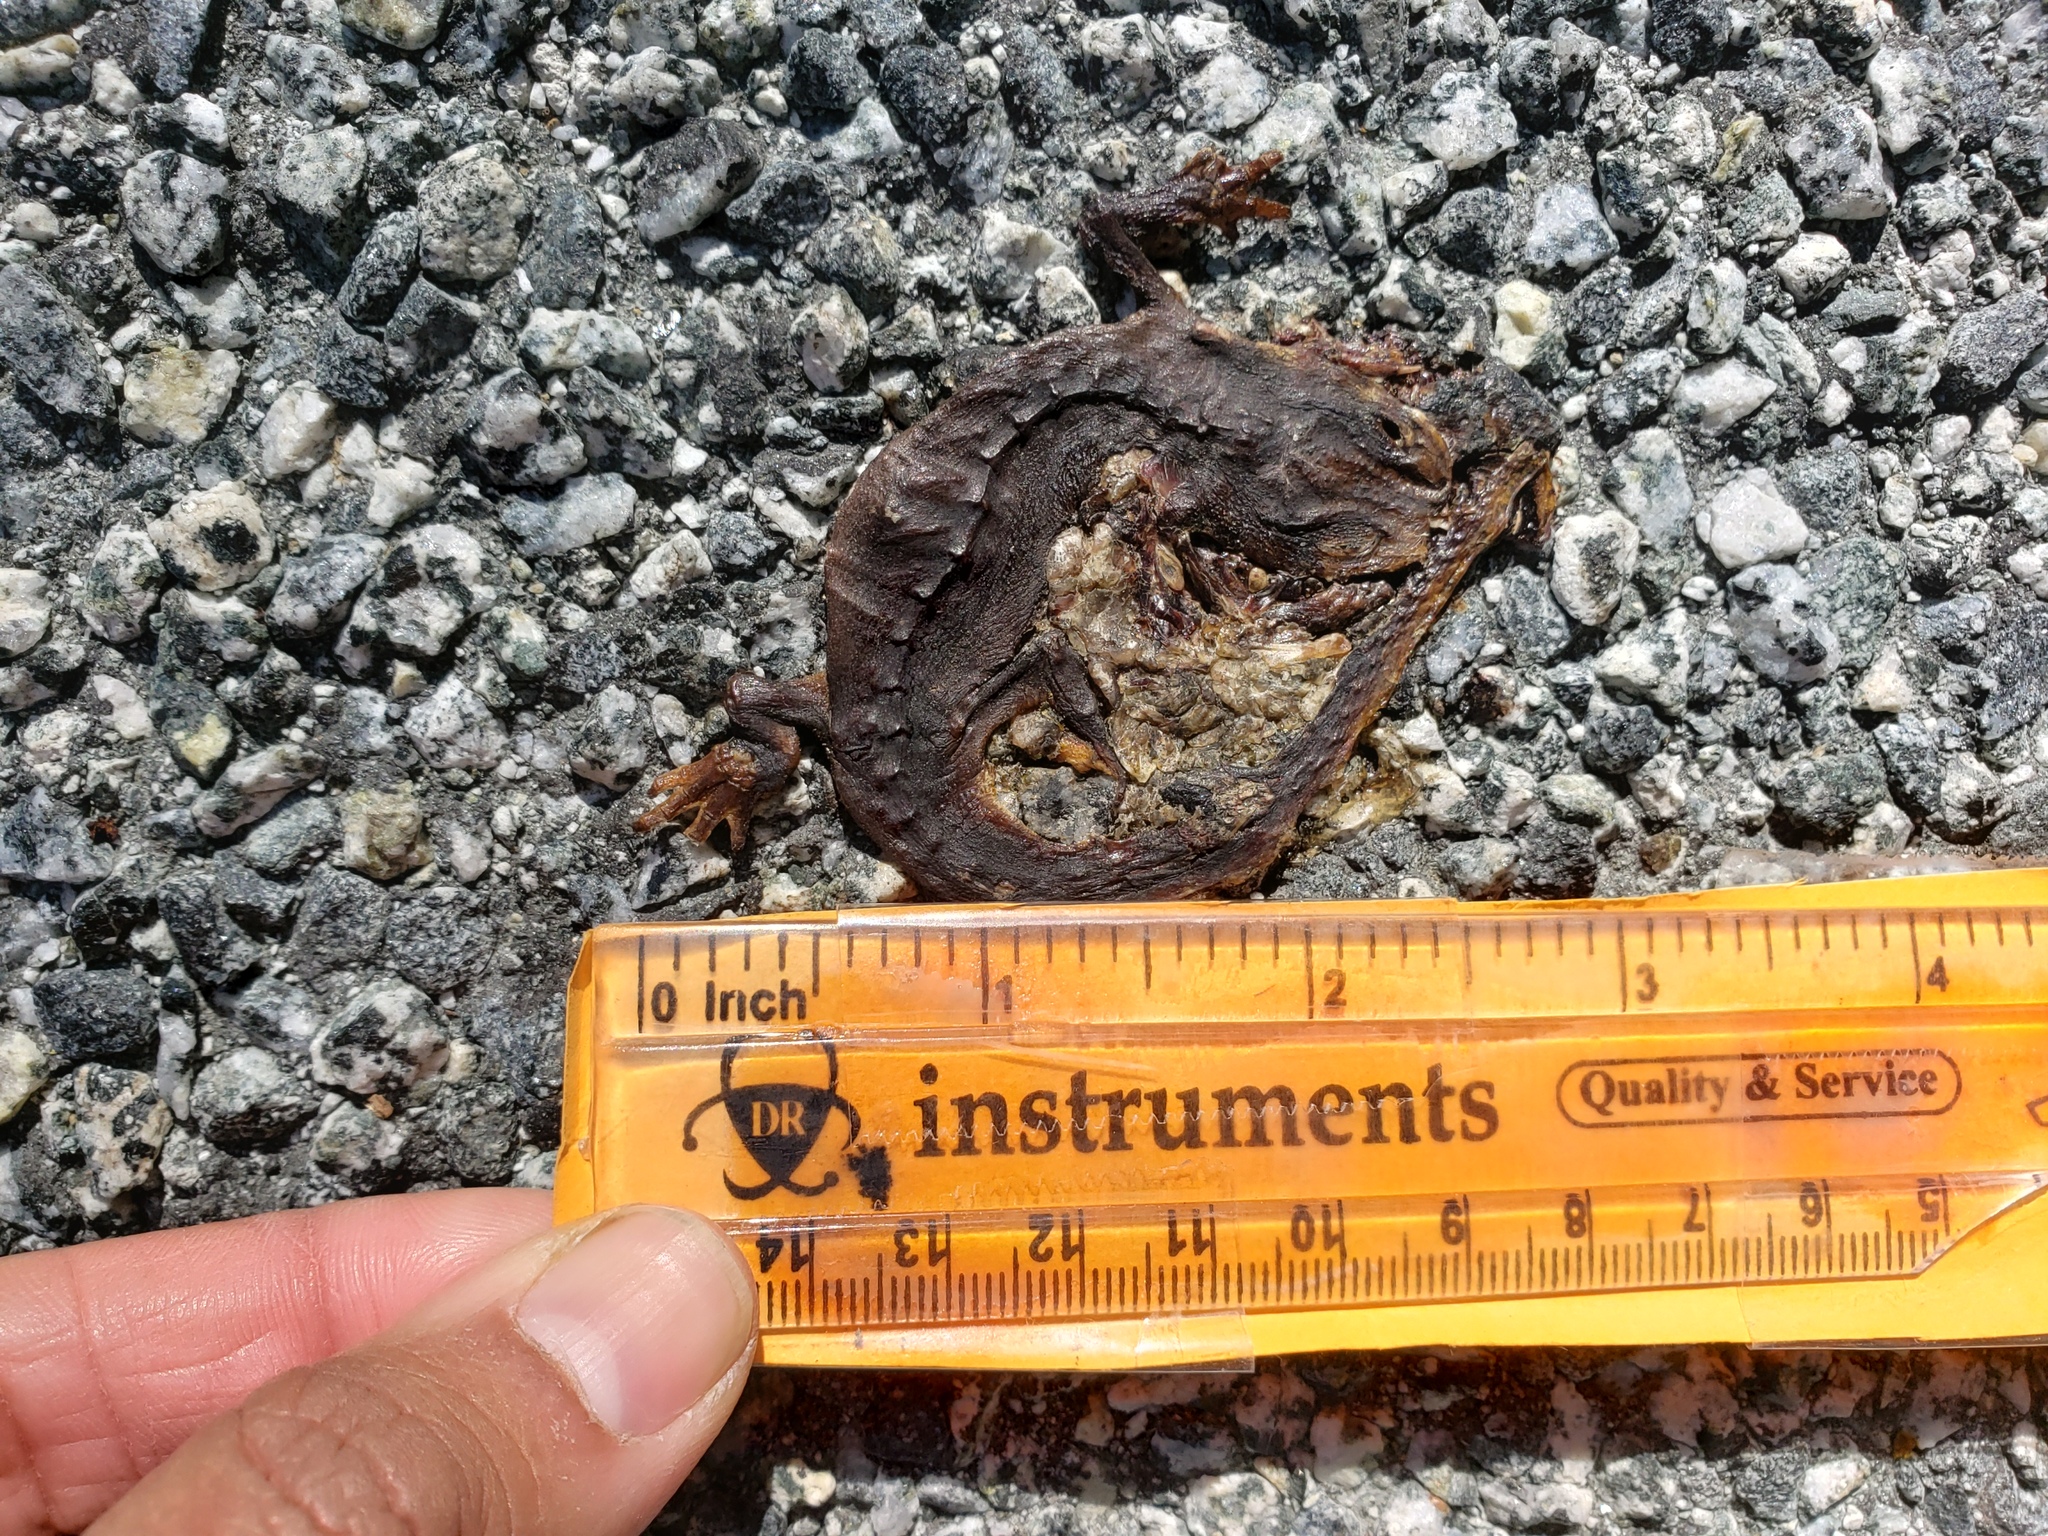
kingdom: Animalia
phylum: Chordata
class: Amphibia
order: Caudata
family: Salamandridae
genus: Taricha
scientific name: Taricha
